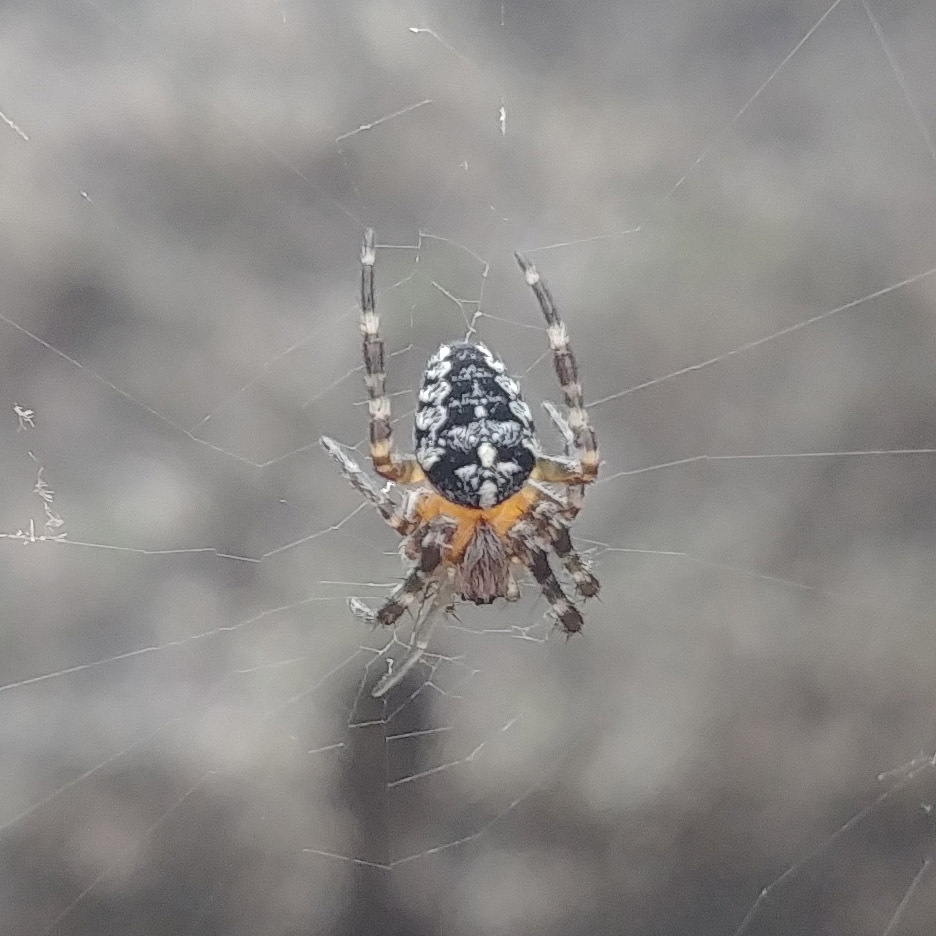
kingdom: Animalia
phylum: Arthropoda
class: Arachnida
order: Araneae
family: Araneidae
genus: Araneus
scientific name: Araneus diadematus
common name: Cross orbweaver
